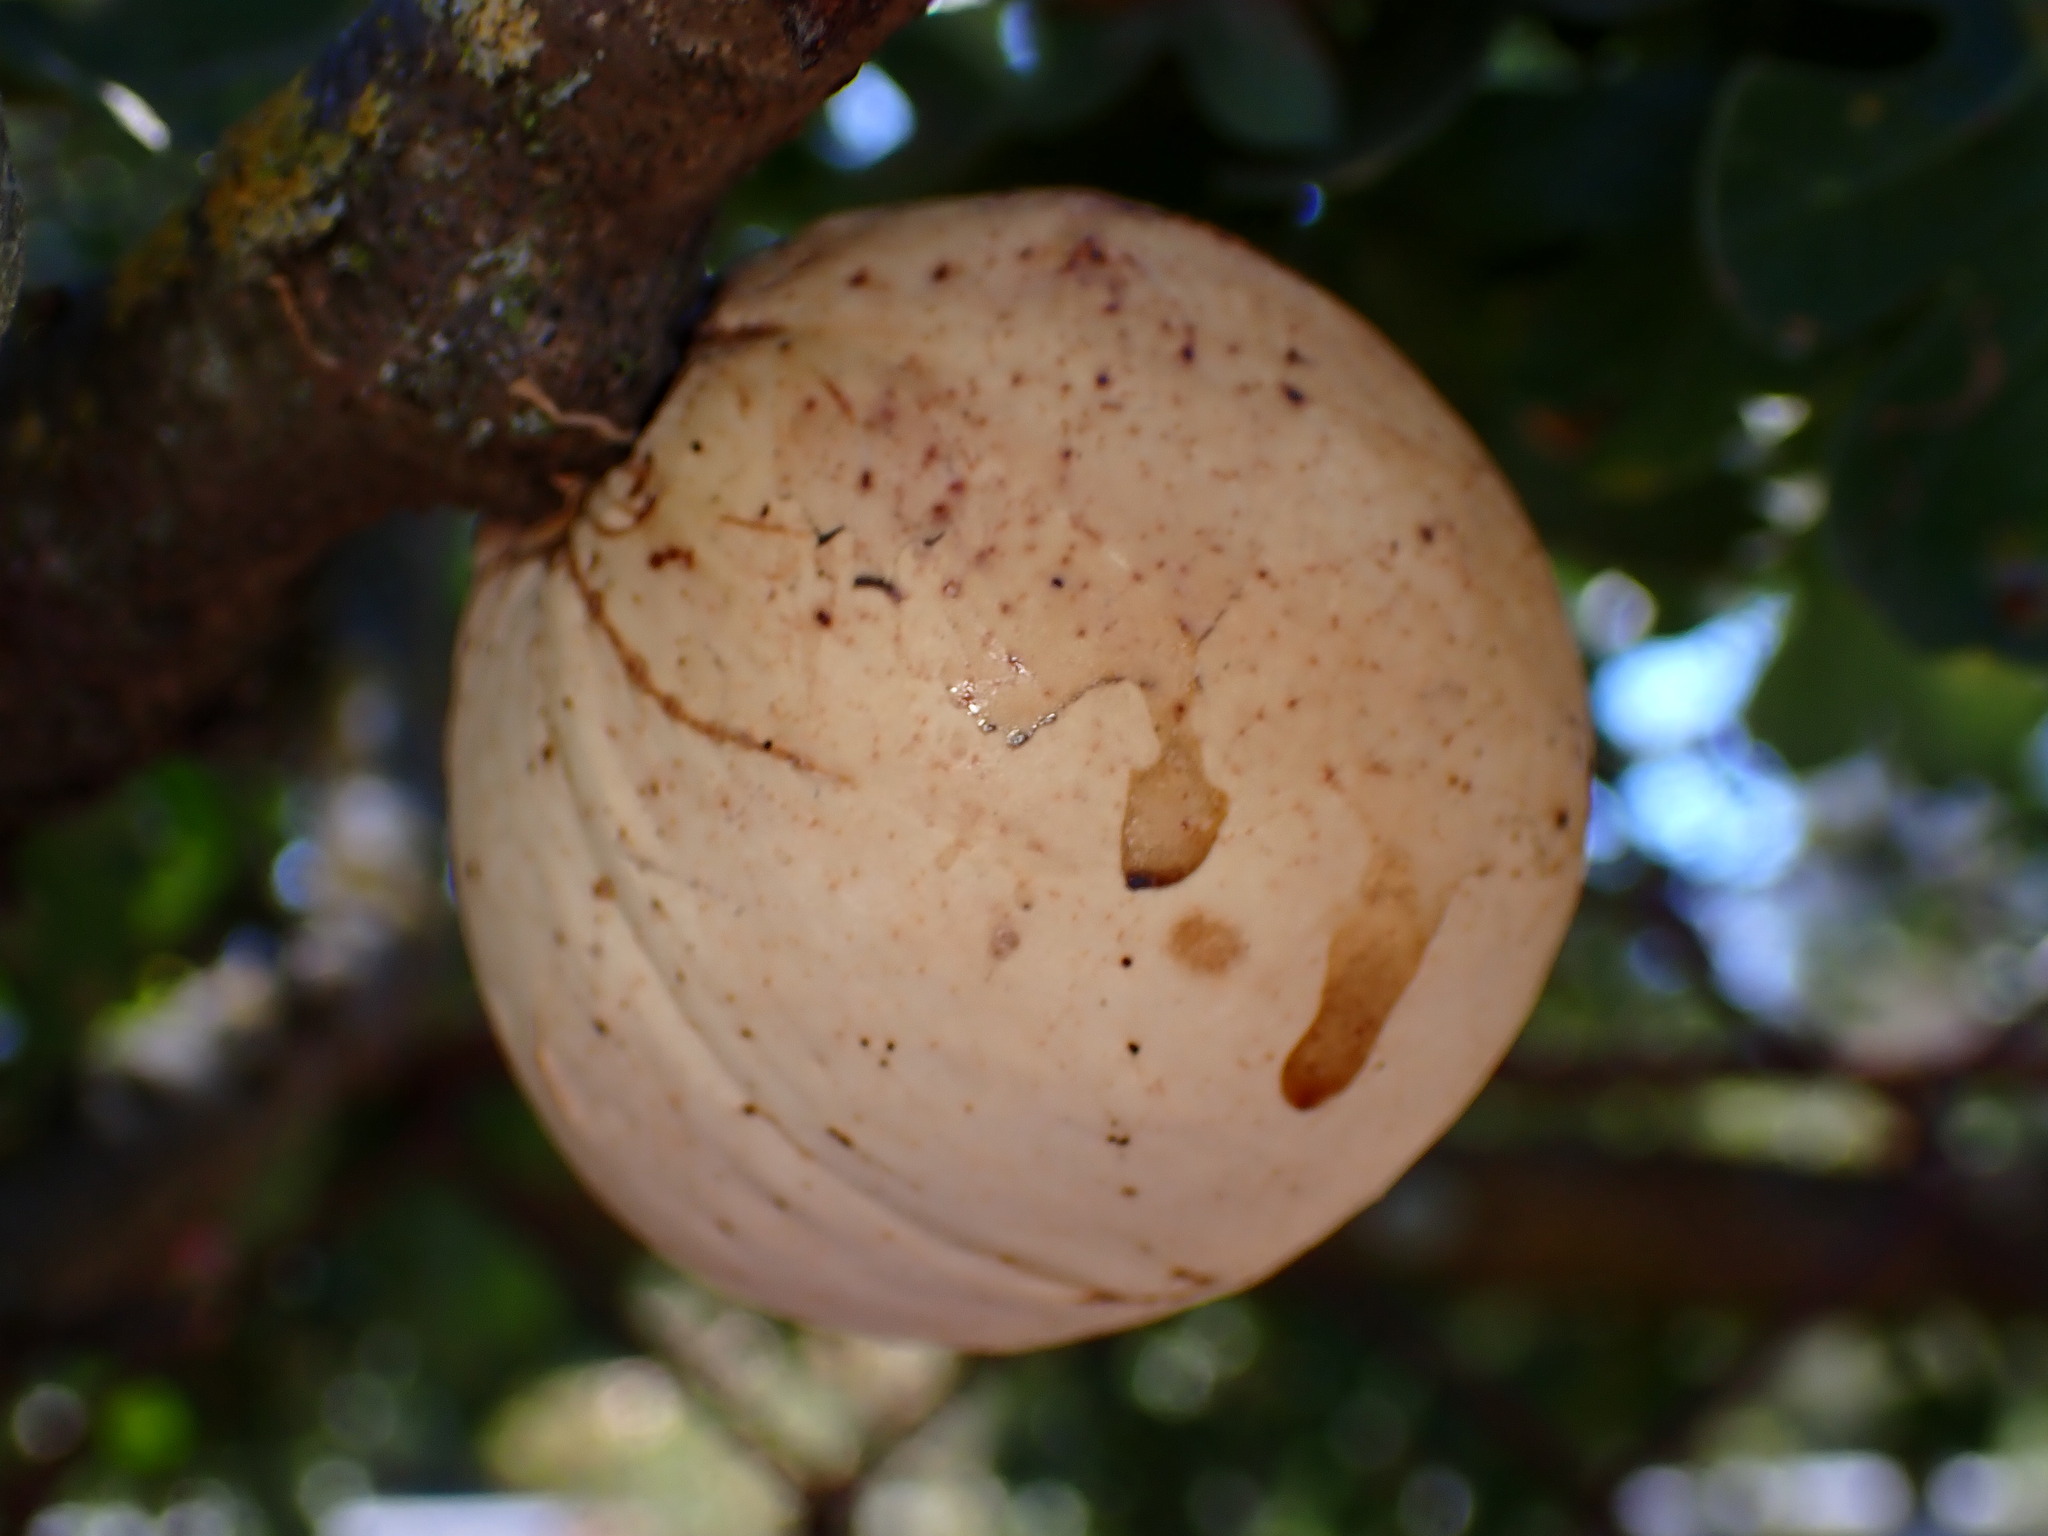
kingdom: Animalia
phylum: Arthropoda
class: Insecta
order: Hymenoptera
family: Cynipidae
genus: Andricus
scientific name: Andricus quercuscalifornicus
